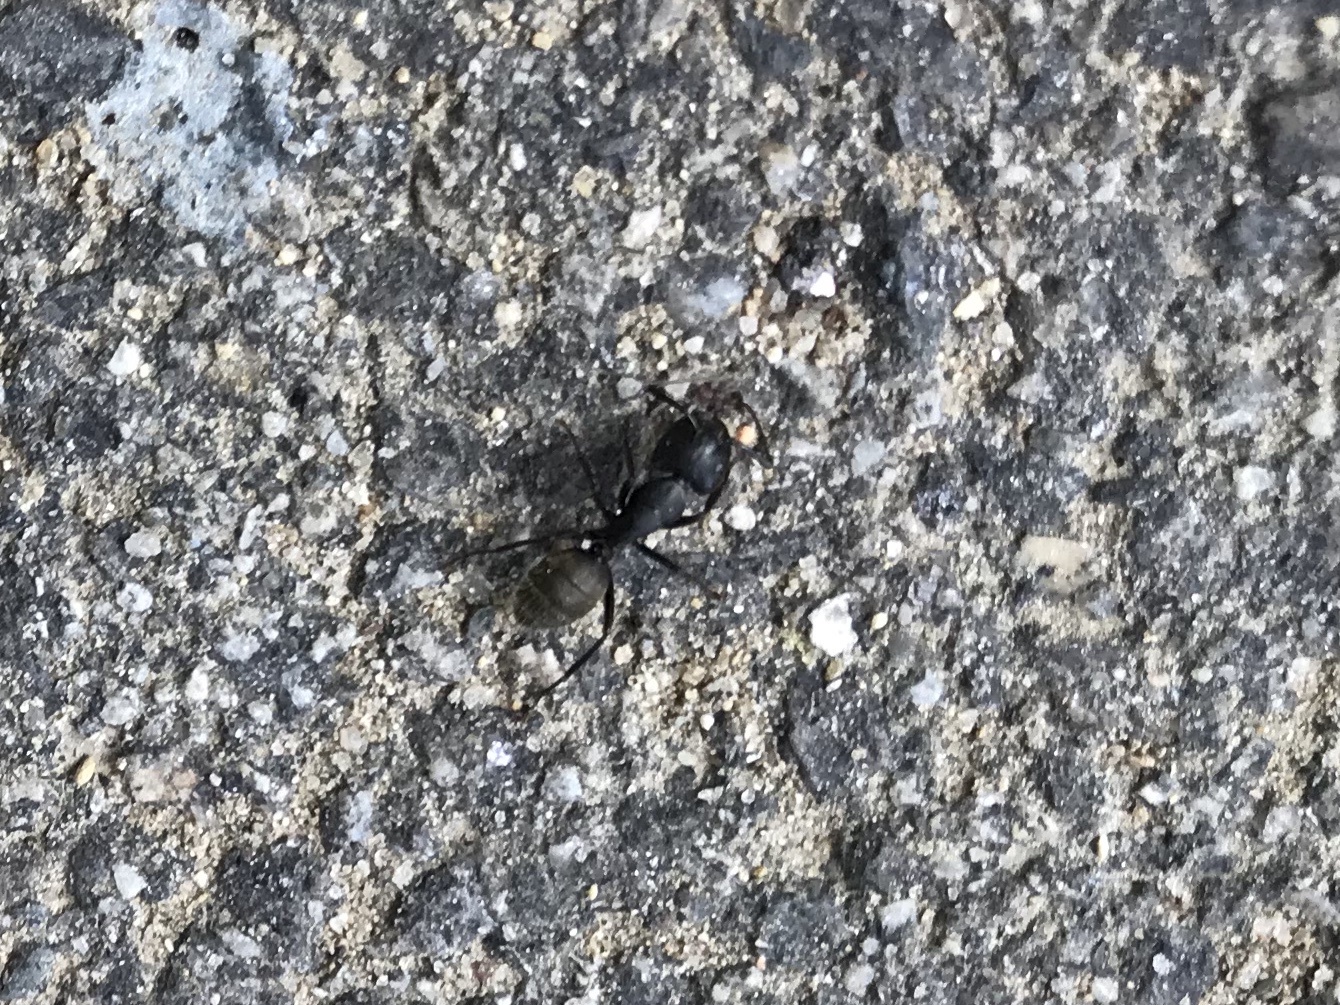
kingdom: Animalia
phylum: Arthropoda
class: Insecta
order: Hymenoptera
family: Formicidae
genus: Camponotus
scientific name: Camponotus pennsylvanicus
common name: Black carpenter ant
